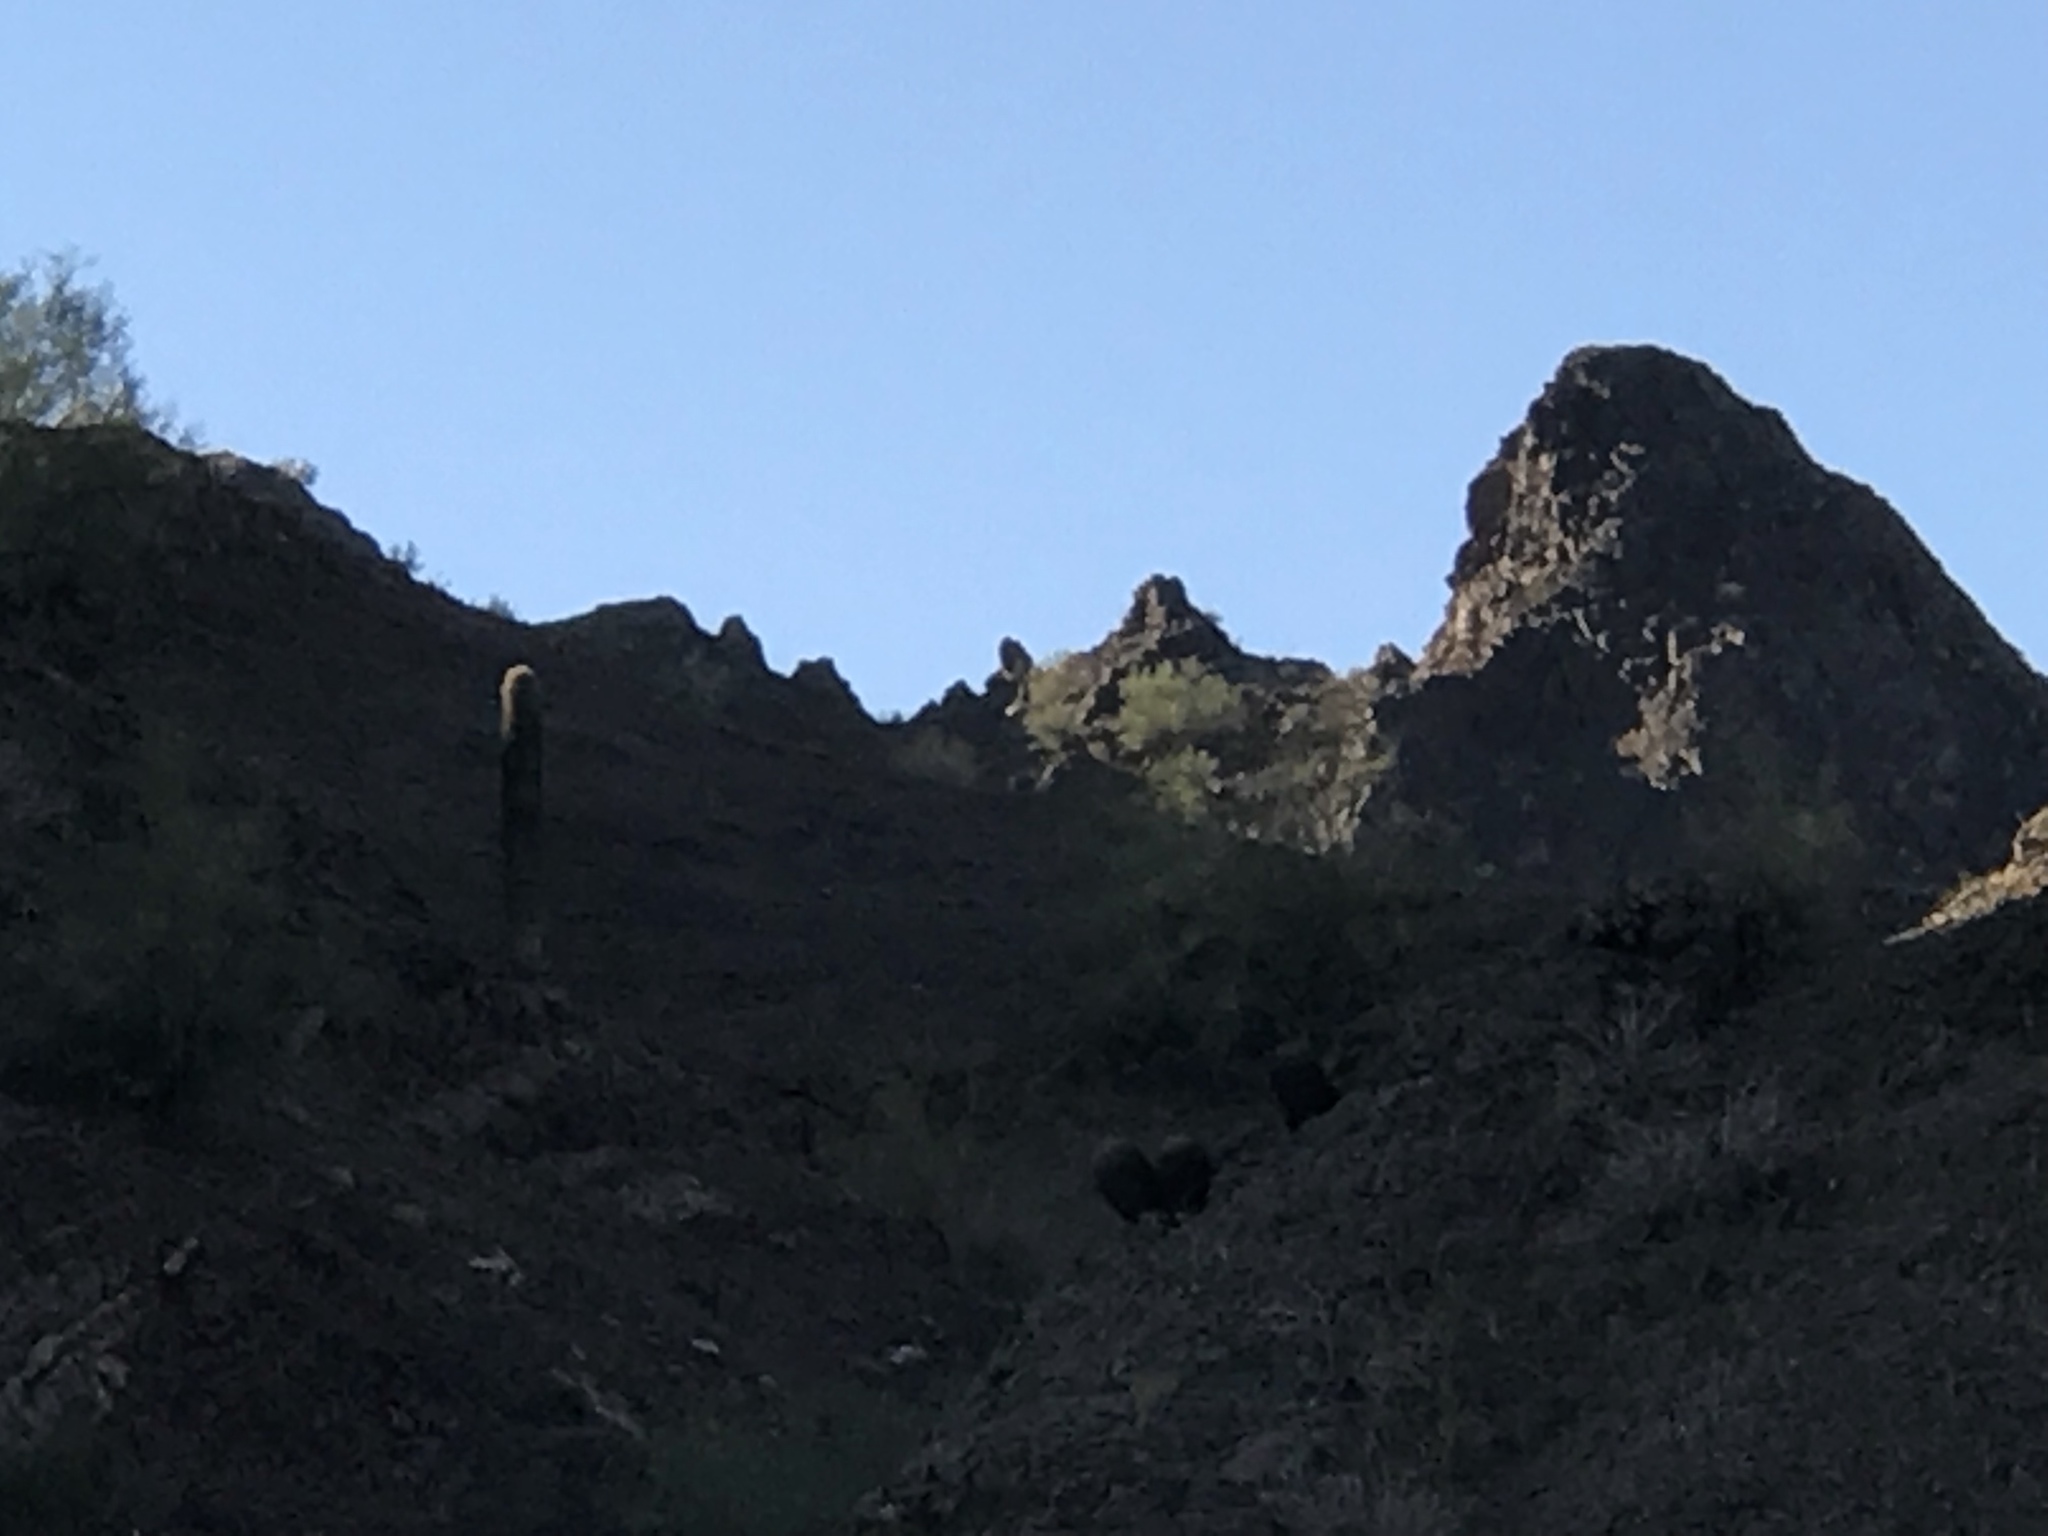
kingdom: Plantae
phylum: Tracheophyta
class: Magnoliopsida
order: Caryophyllales
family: Cactaceae
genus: Carnegiea
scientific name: Carnegiea gigantea
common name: Saguaro
